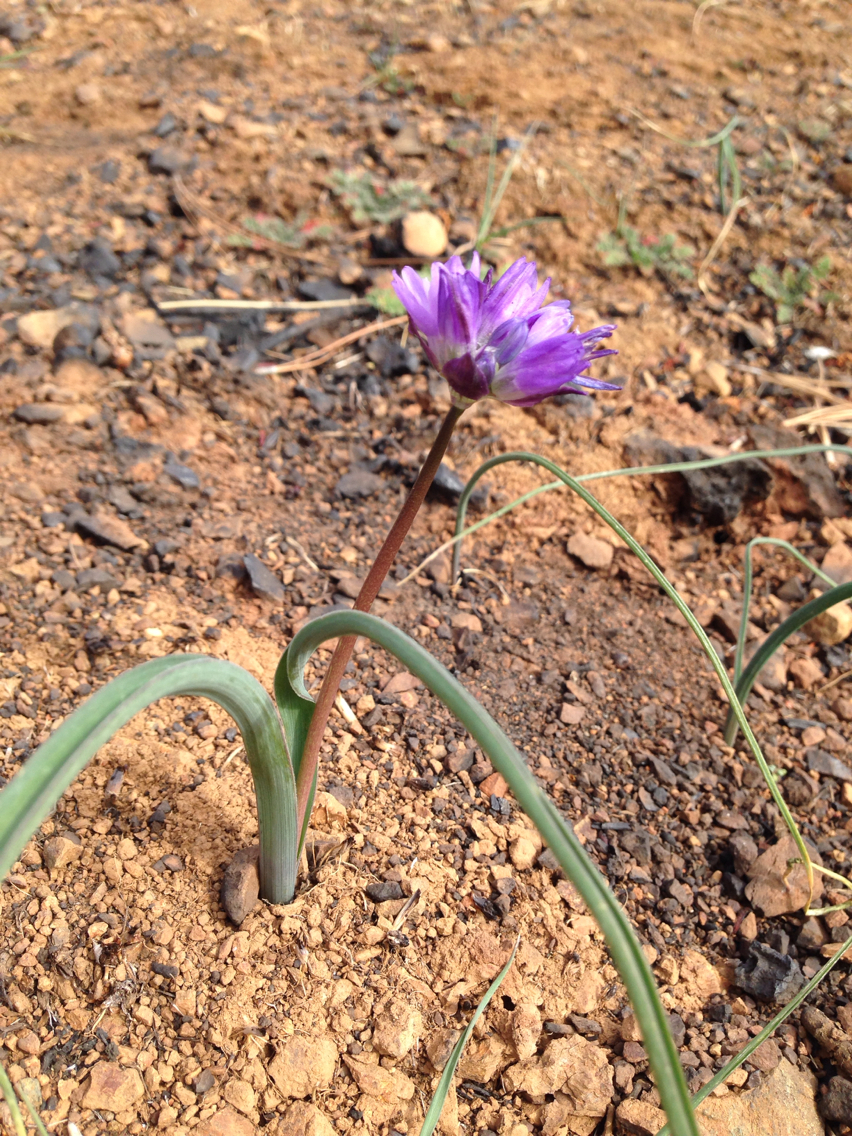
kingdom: Plantae
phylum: Tracheophyta
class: Liliopsida
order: Asparagales
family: Asparagaceae
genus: Dipterostemon
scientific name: Dipterostemon capitatus
